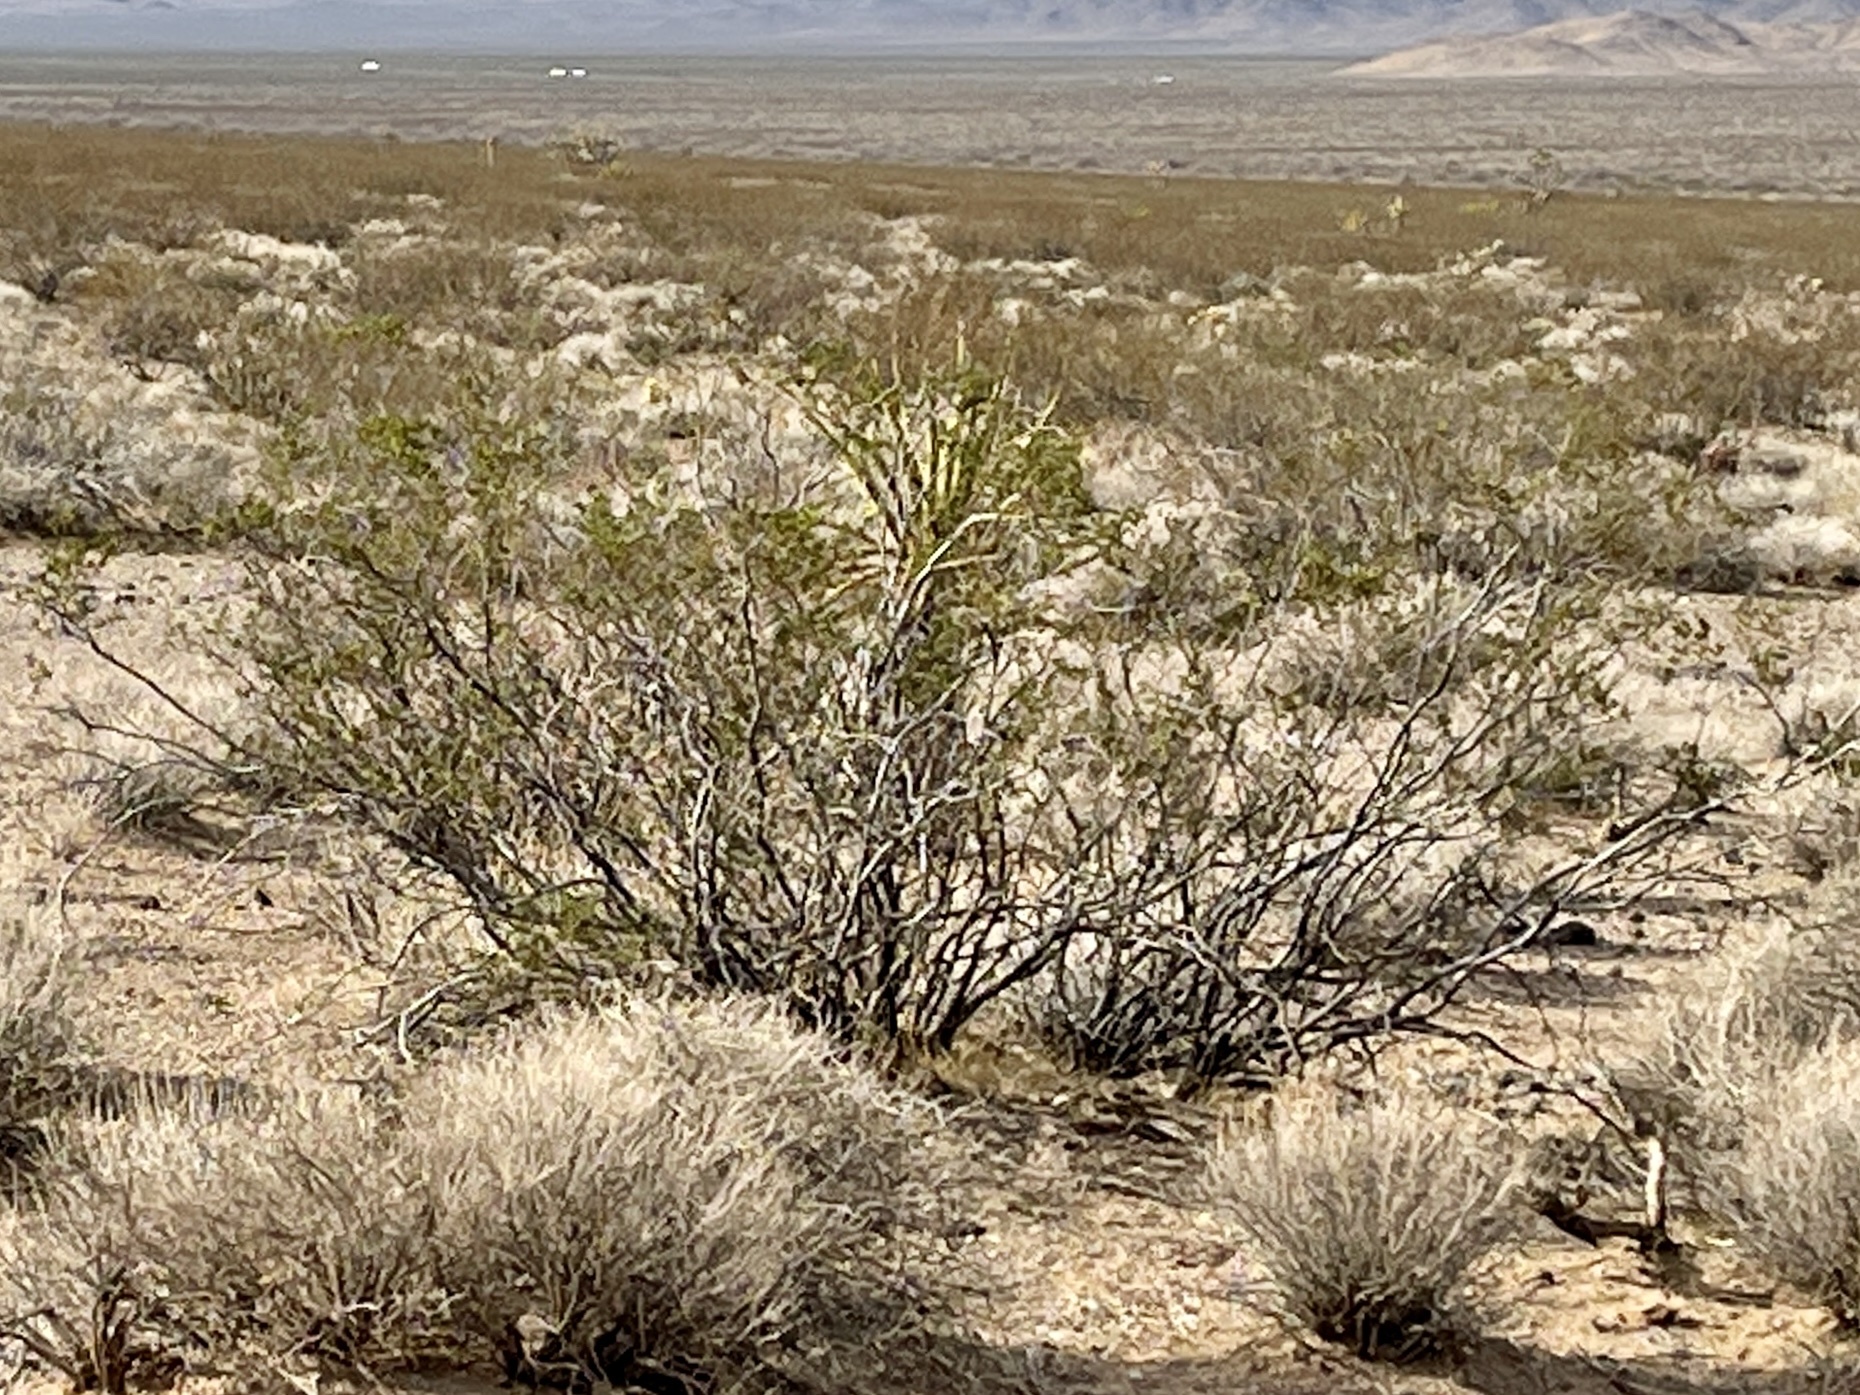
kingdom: Plantae
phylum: Tracheophyta
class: Magnoliopsida
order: Zygophyllales
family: Zygophyllaceae
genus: Larrea
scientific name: Larrea tridentata
